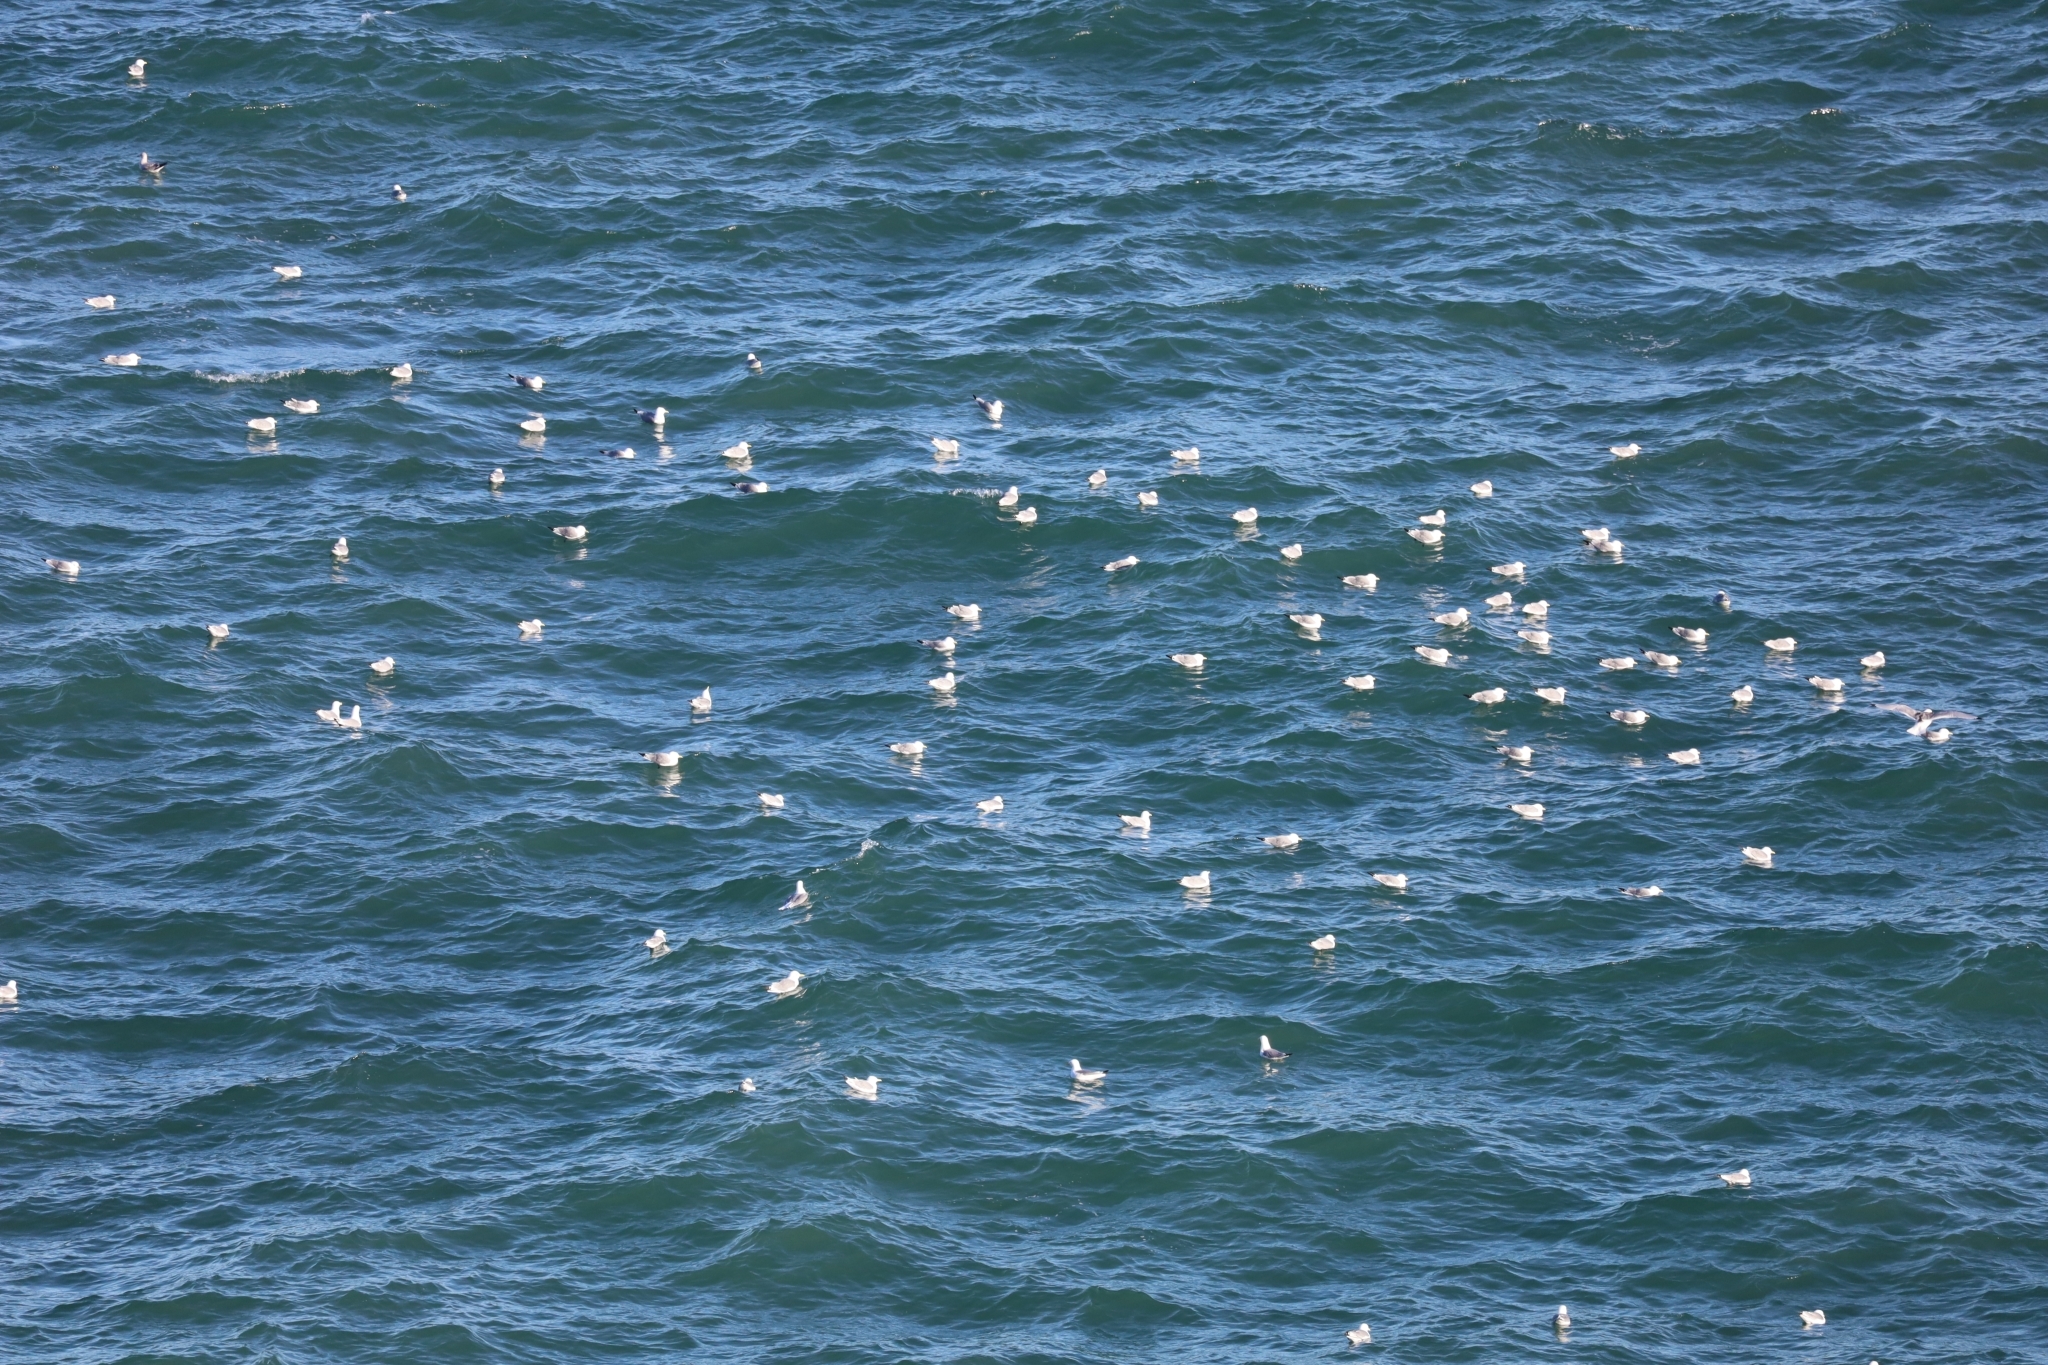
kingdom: Animalia
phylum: Chordata
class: Aves
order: Charadriiformes
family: Laridae
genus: Rissa
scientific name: Rissa tridactyla
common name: Black-legged kittiwake
